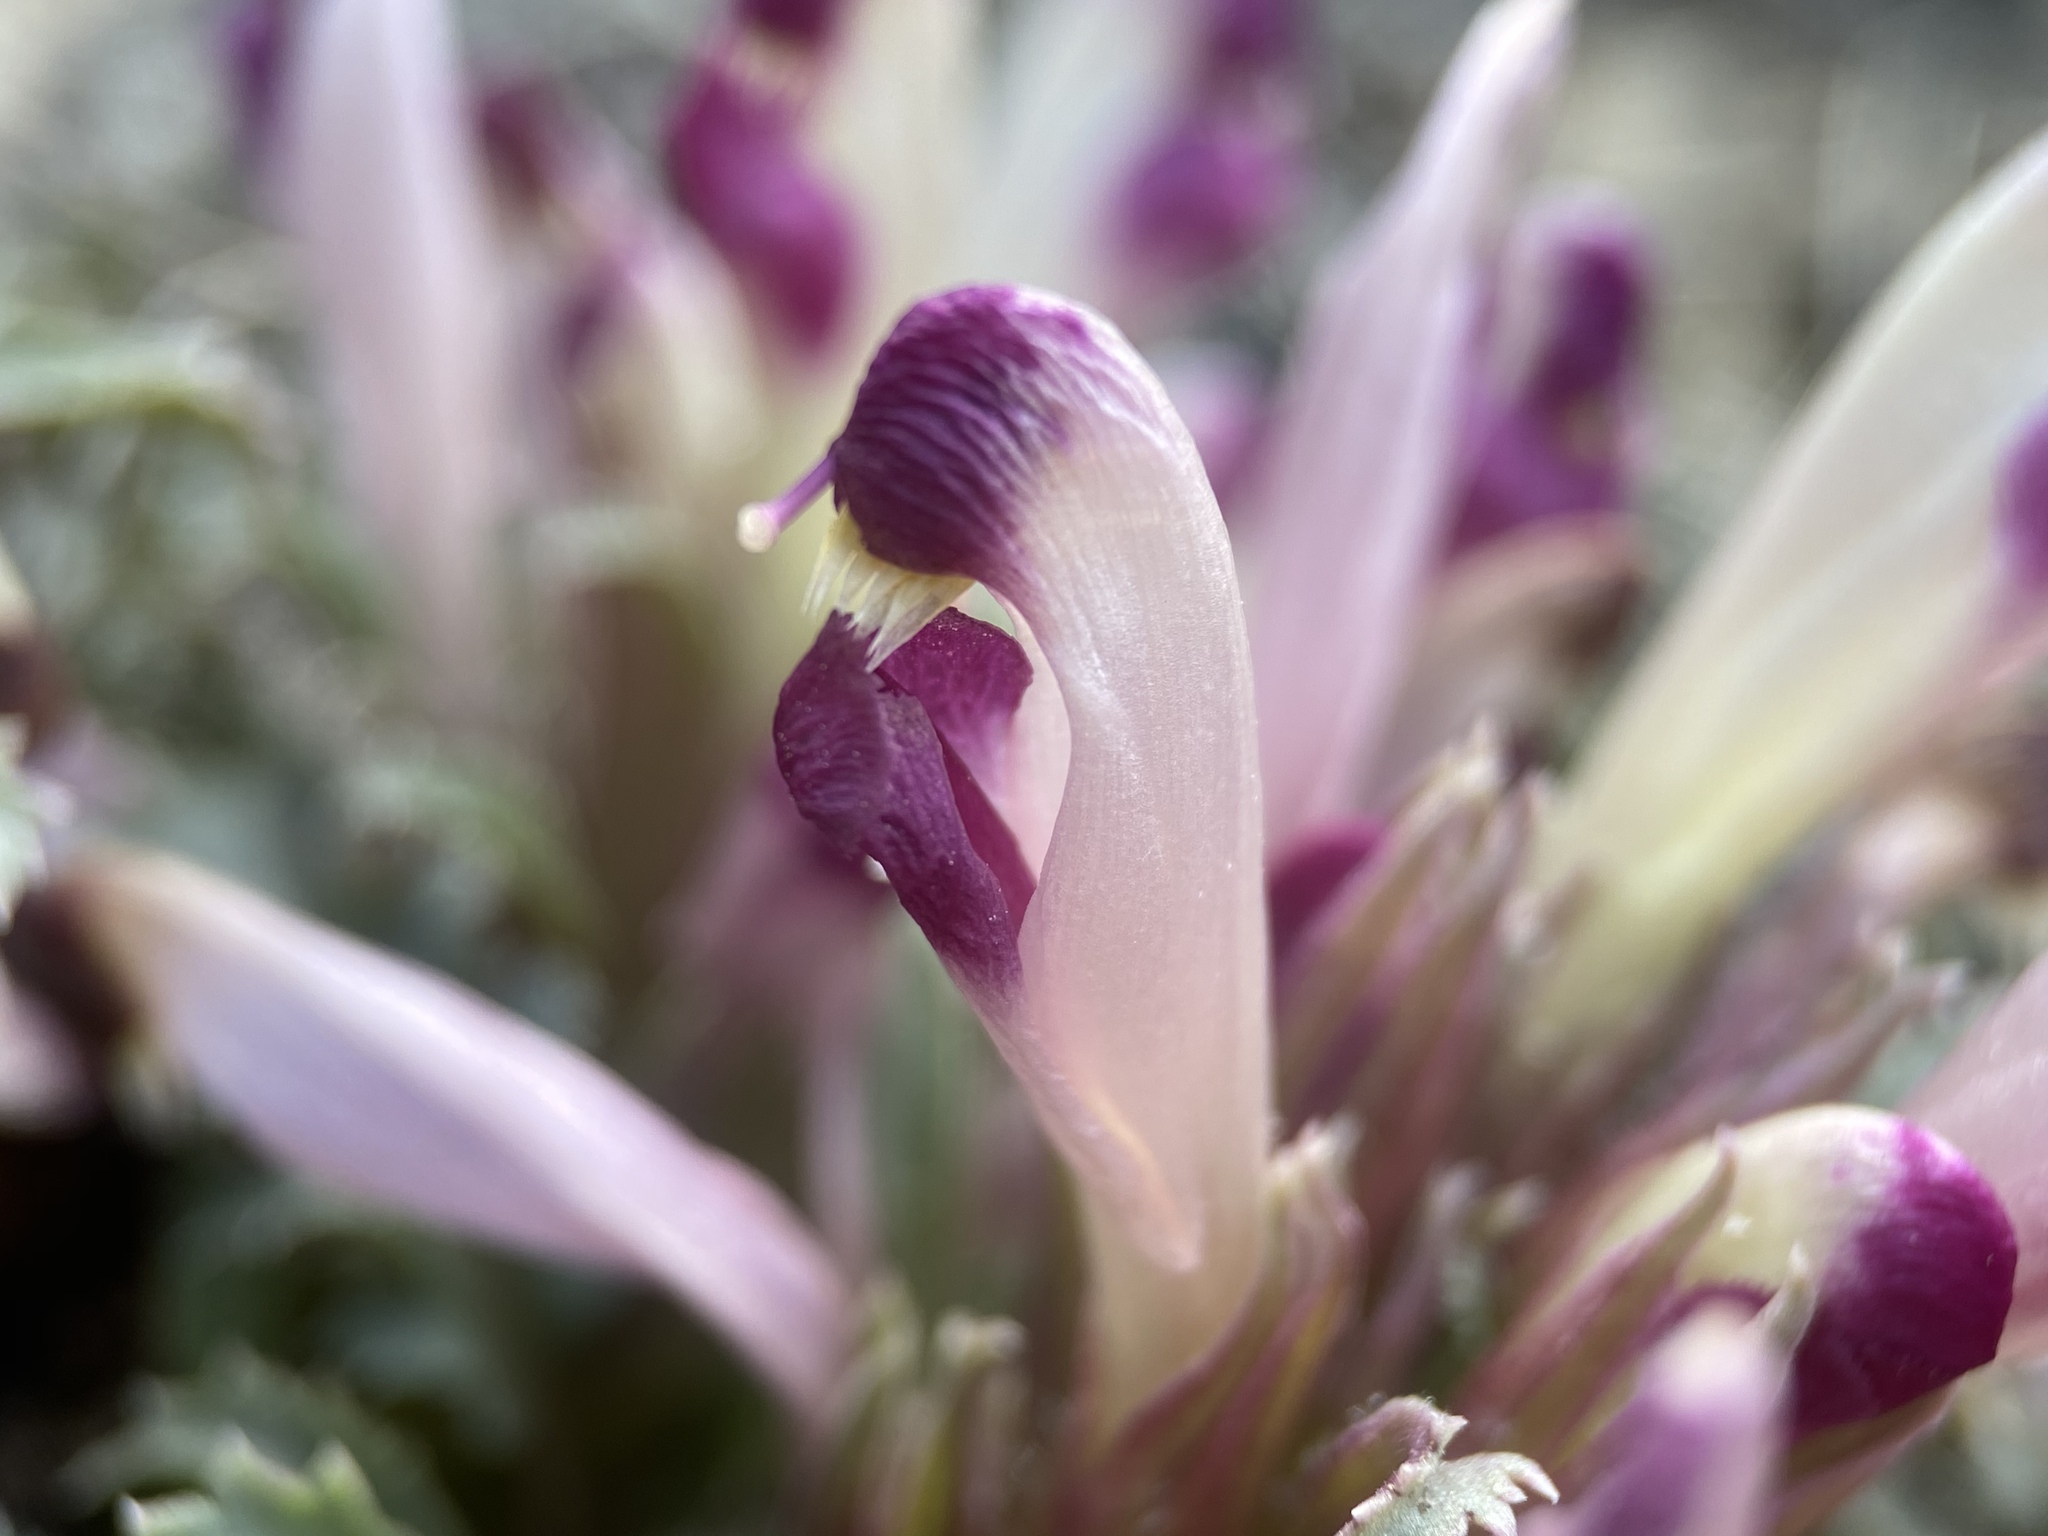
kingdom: Plantae
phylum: Tracheophyta
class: Magnoliopsida
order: Lamiales
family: Orobanchaceae
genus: Pedicularis
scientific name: Pedicularis centranthera
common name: Dwarf lousewort
